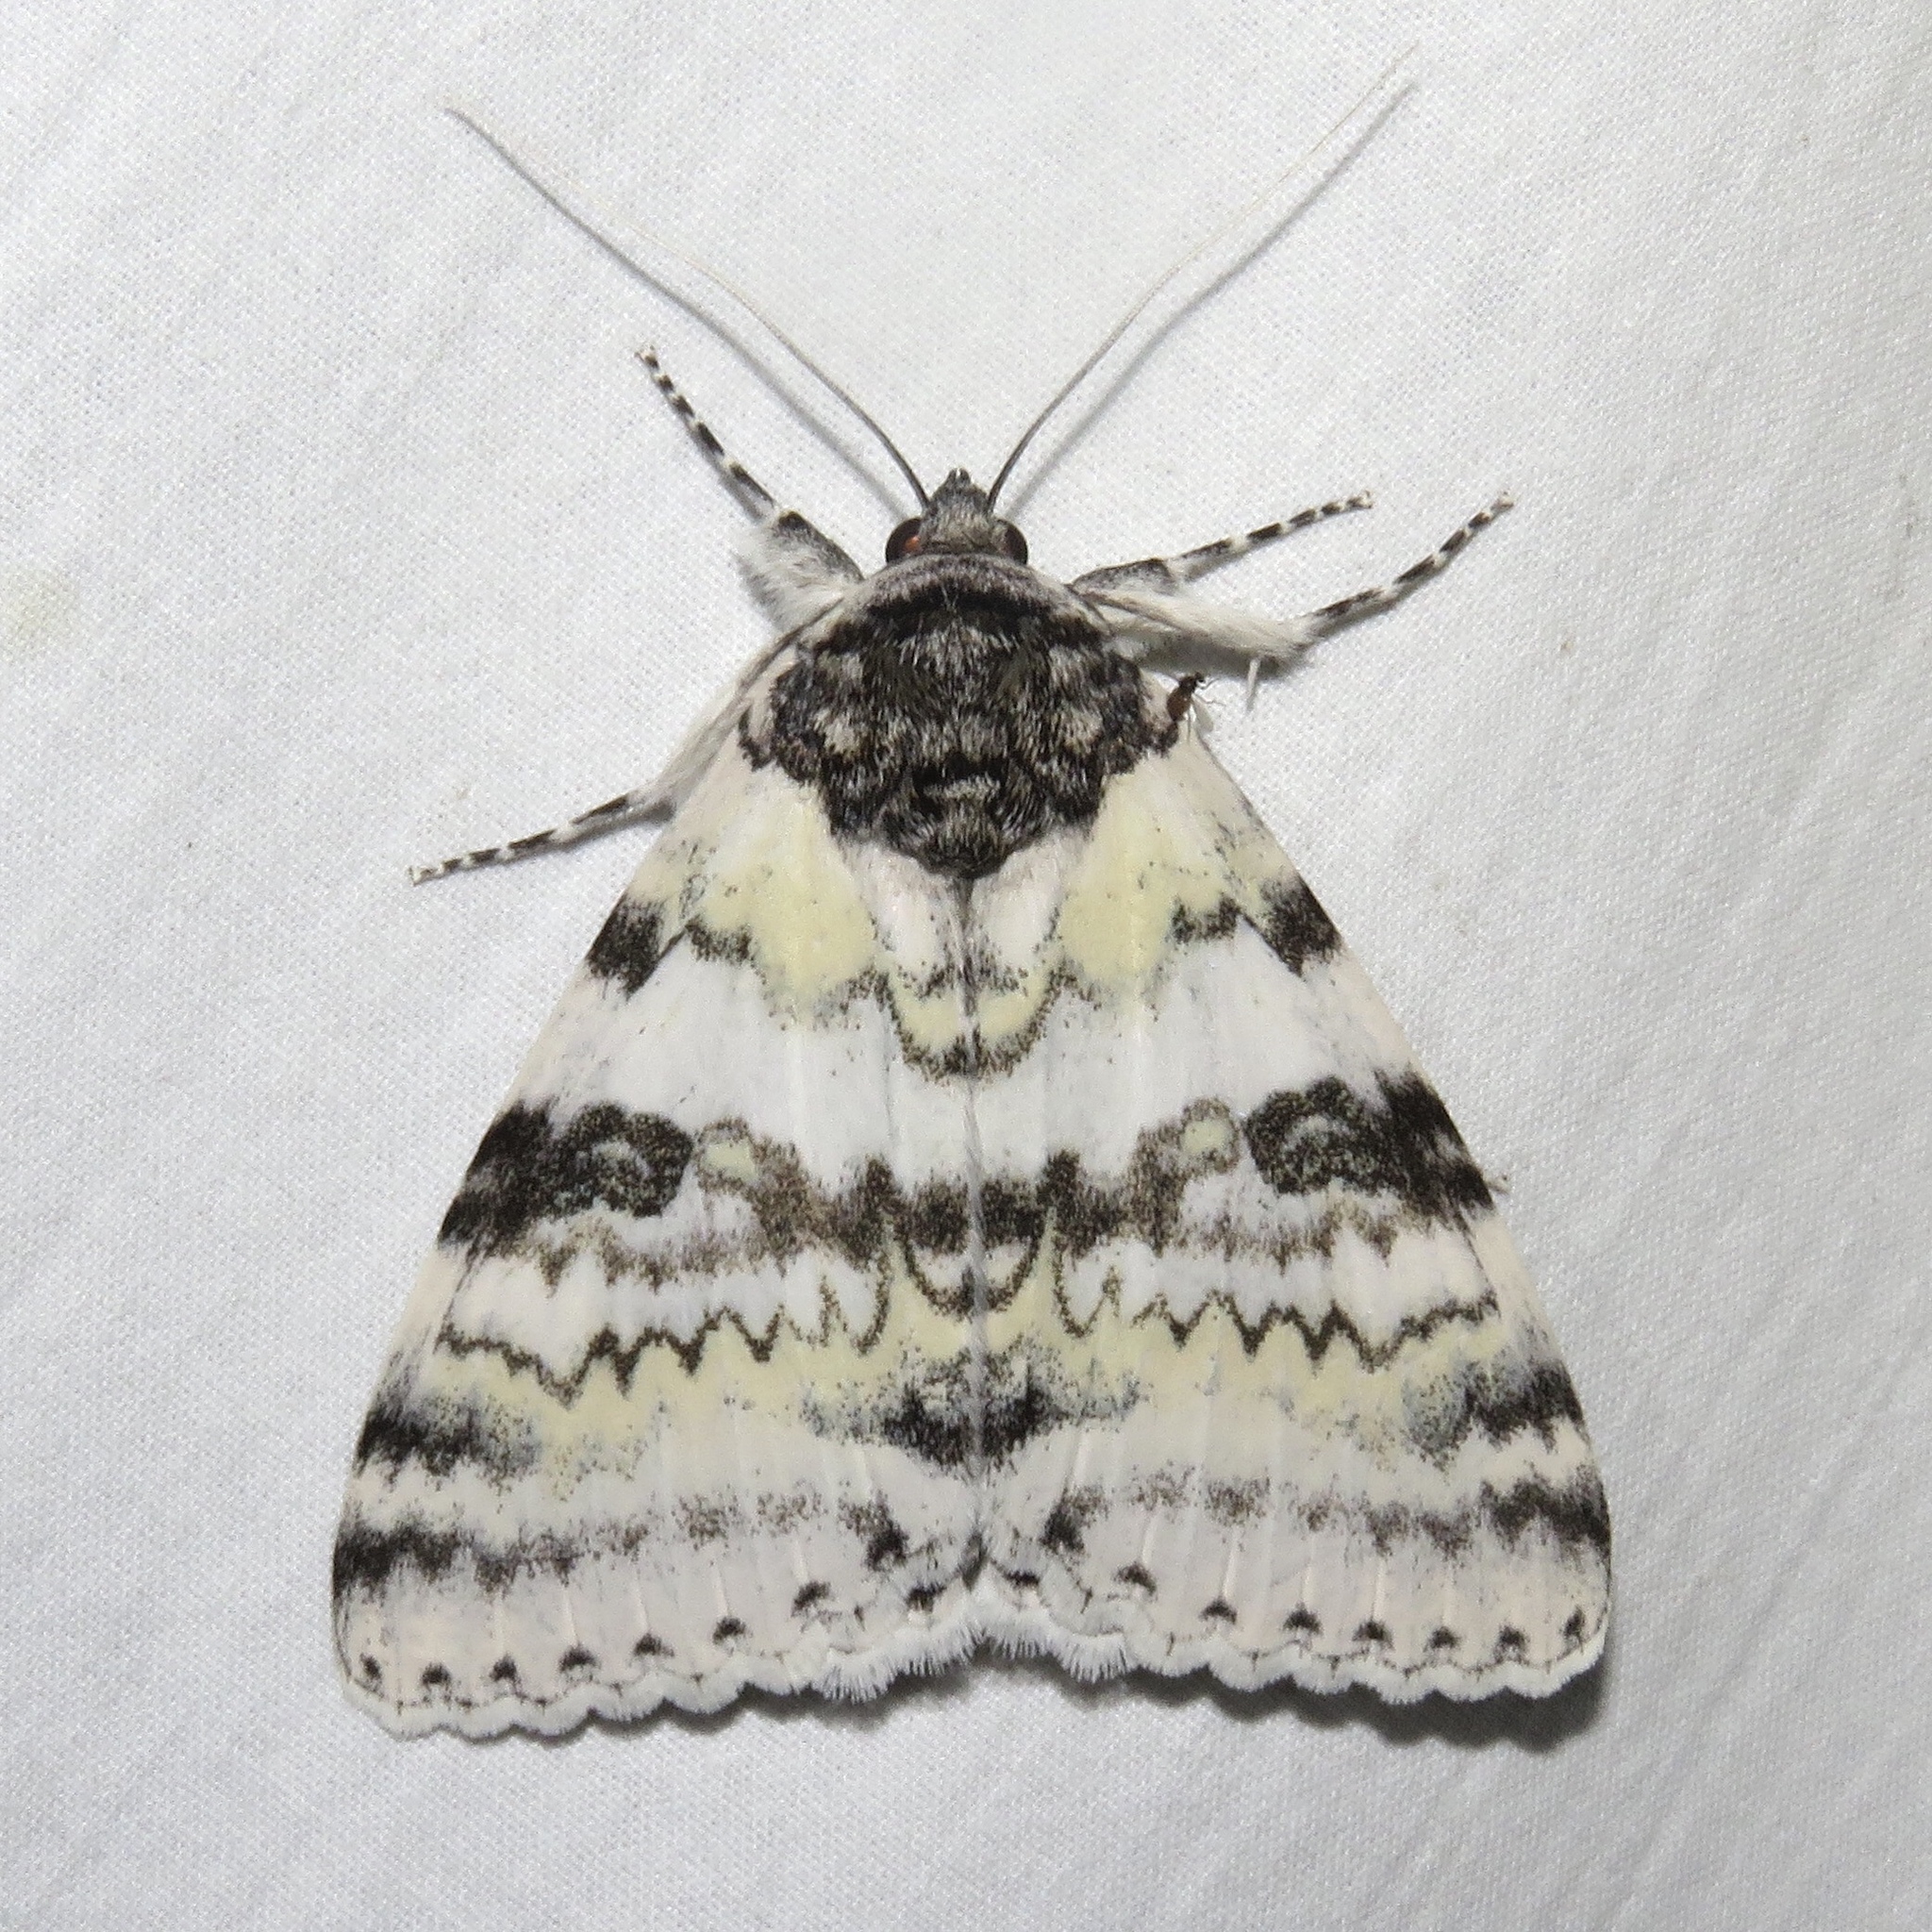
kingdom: Animalia
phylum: Arthropoda
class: Insecta
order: Lepidoptera
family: Erebidae
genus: Catocala
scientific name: Catocala relicta
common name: White underwing
